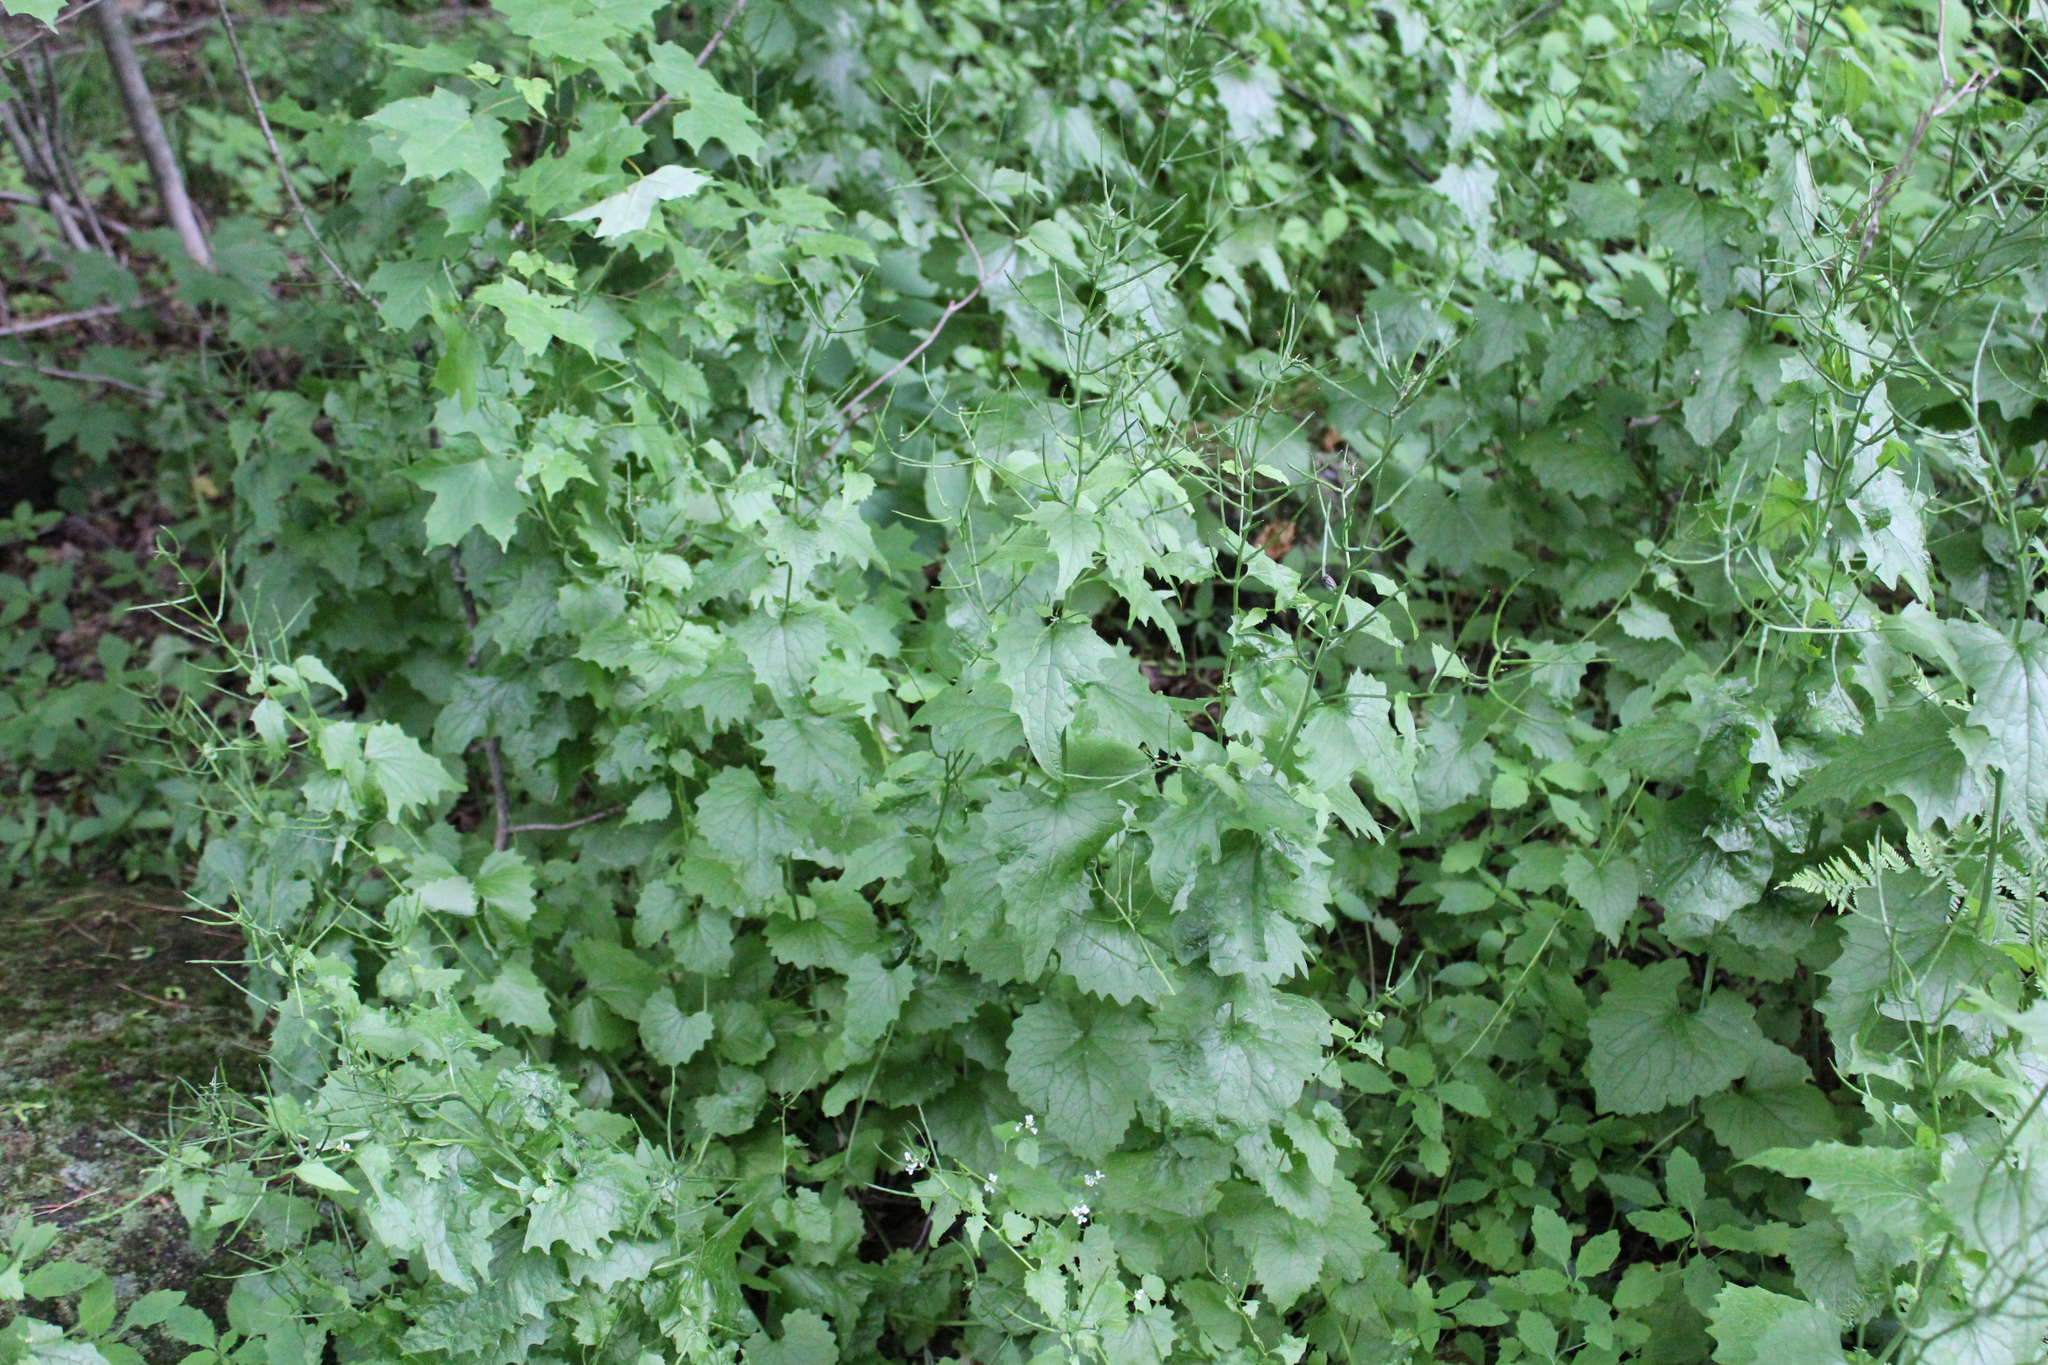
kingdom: Plantae
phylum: Tracheophyta
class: Magnoliopsida
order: Brassicales
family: Brassicaceae
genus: Alliaria
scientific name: Alliaria petiolata
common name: Garlic mustard
